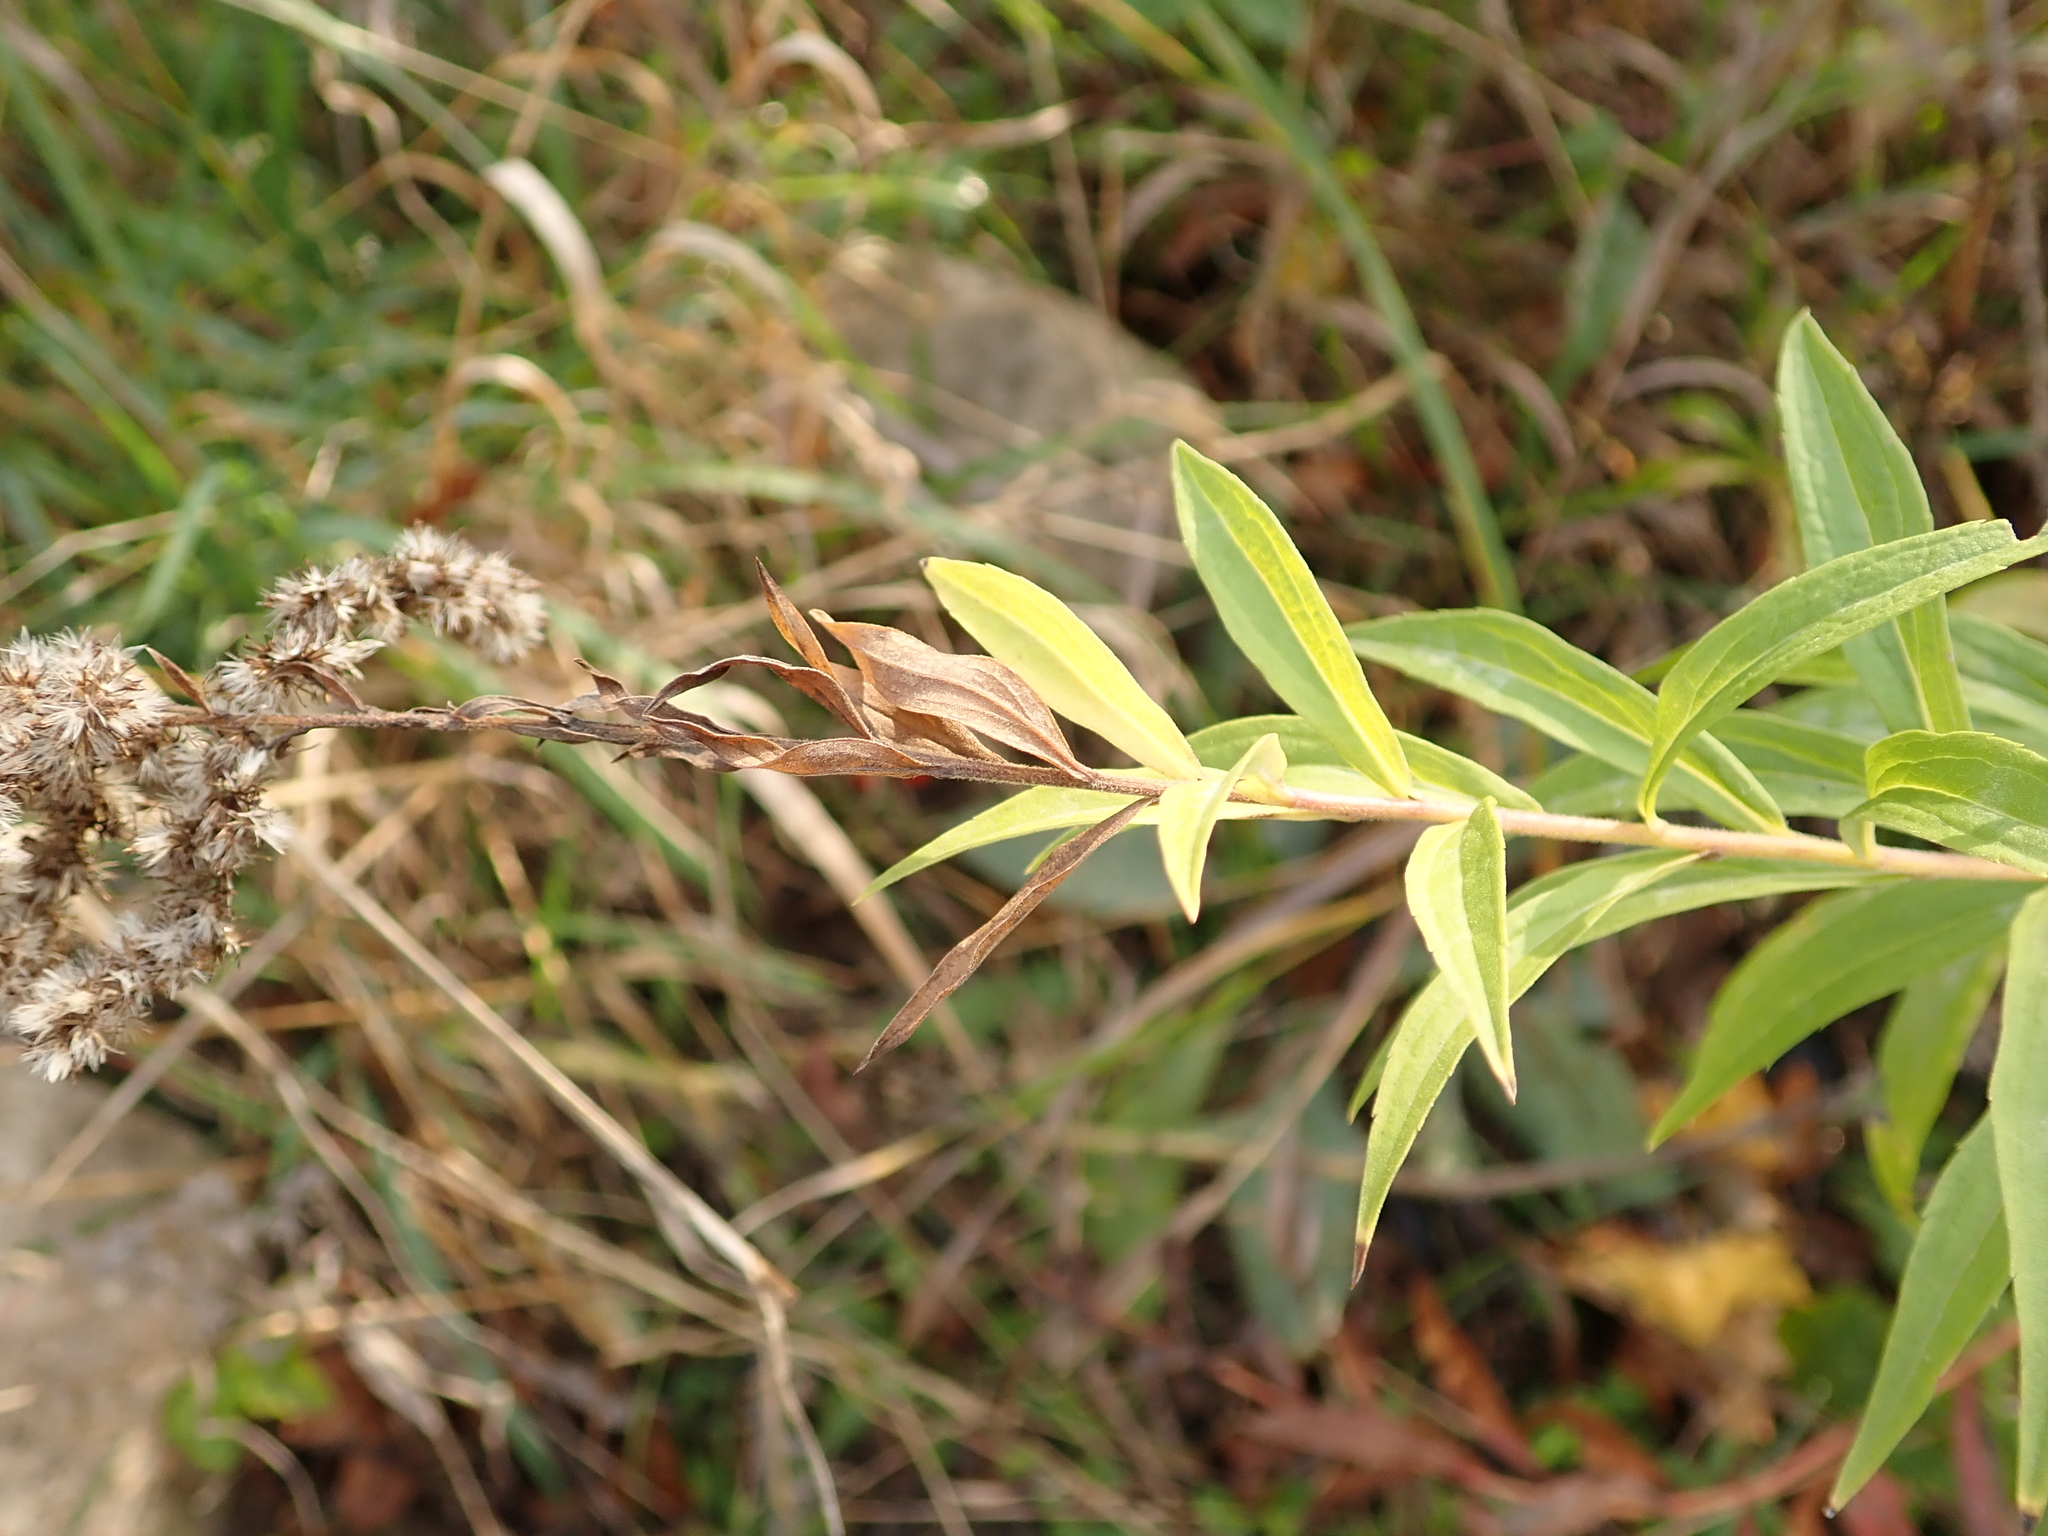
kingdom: Plantae
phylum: Tracheophyta
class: Magnoliopsida
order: Asterales
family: Asteraceae
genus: Solidago
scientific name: Solidago canadensis
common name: Canada goldenrod
